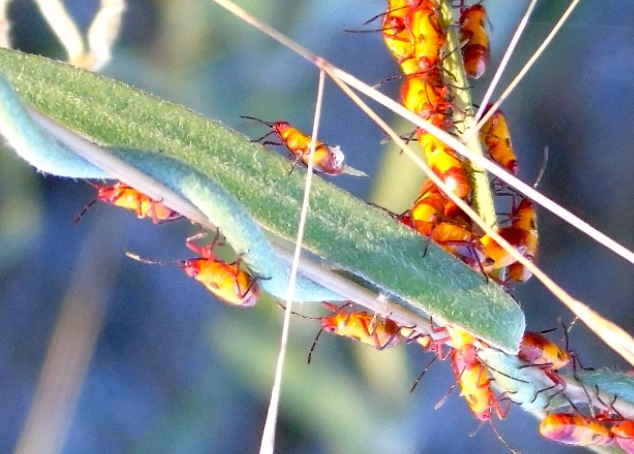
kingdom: Animalia
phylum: Arthropoda
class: Insecta
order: Hemiptera
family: Lygaeidae
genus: Oncopeltus
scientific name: Oncopeltus
